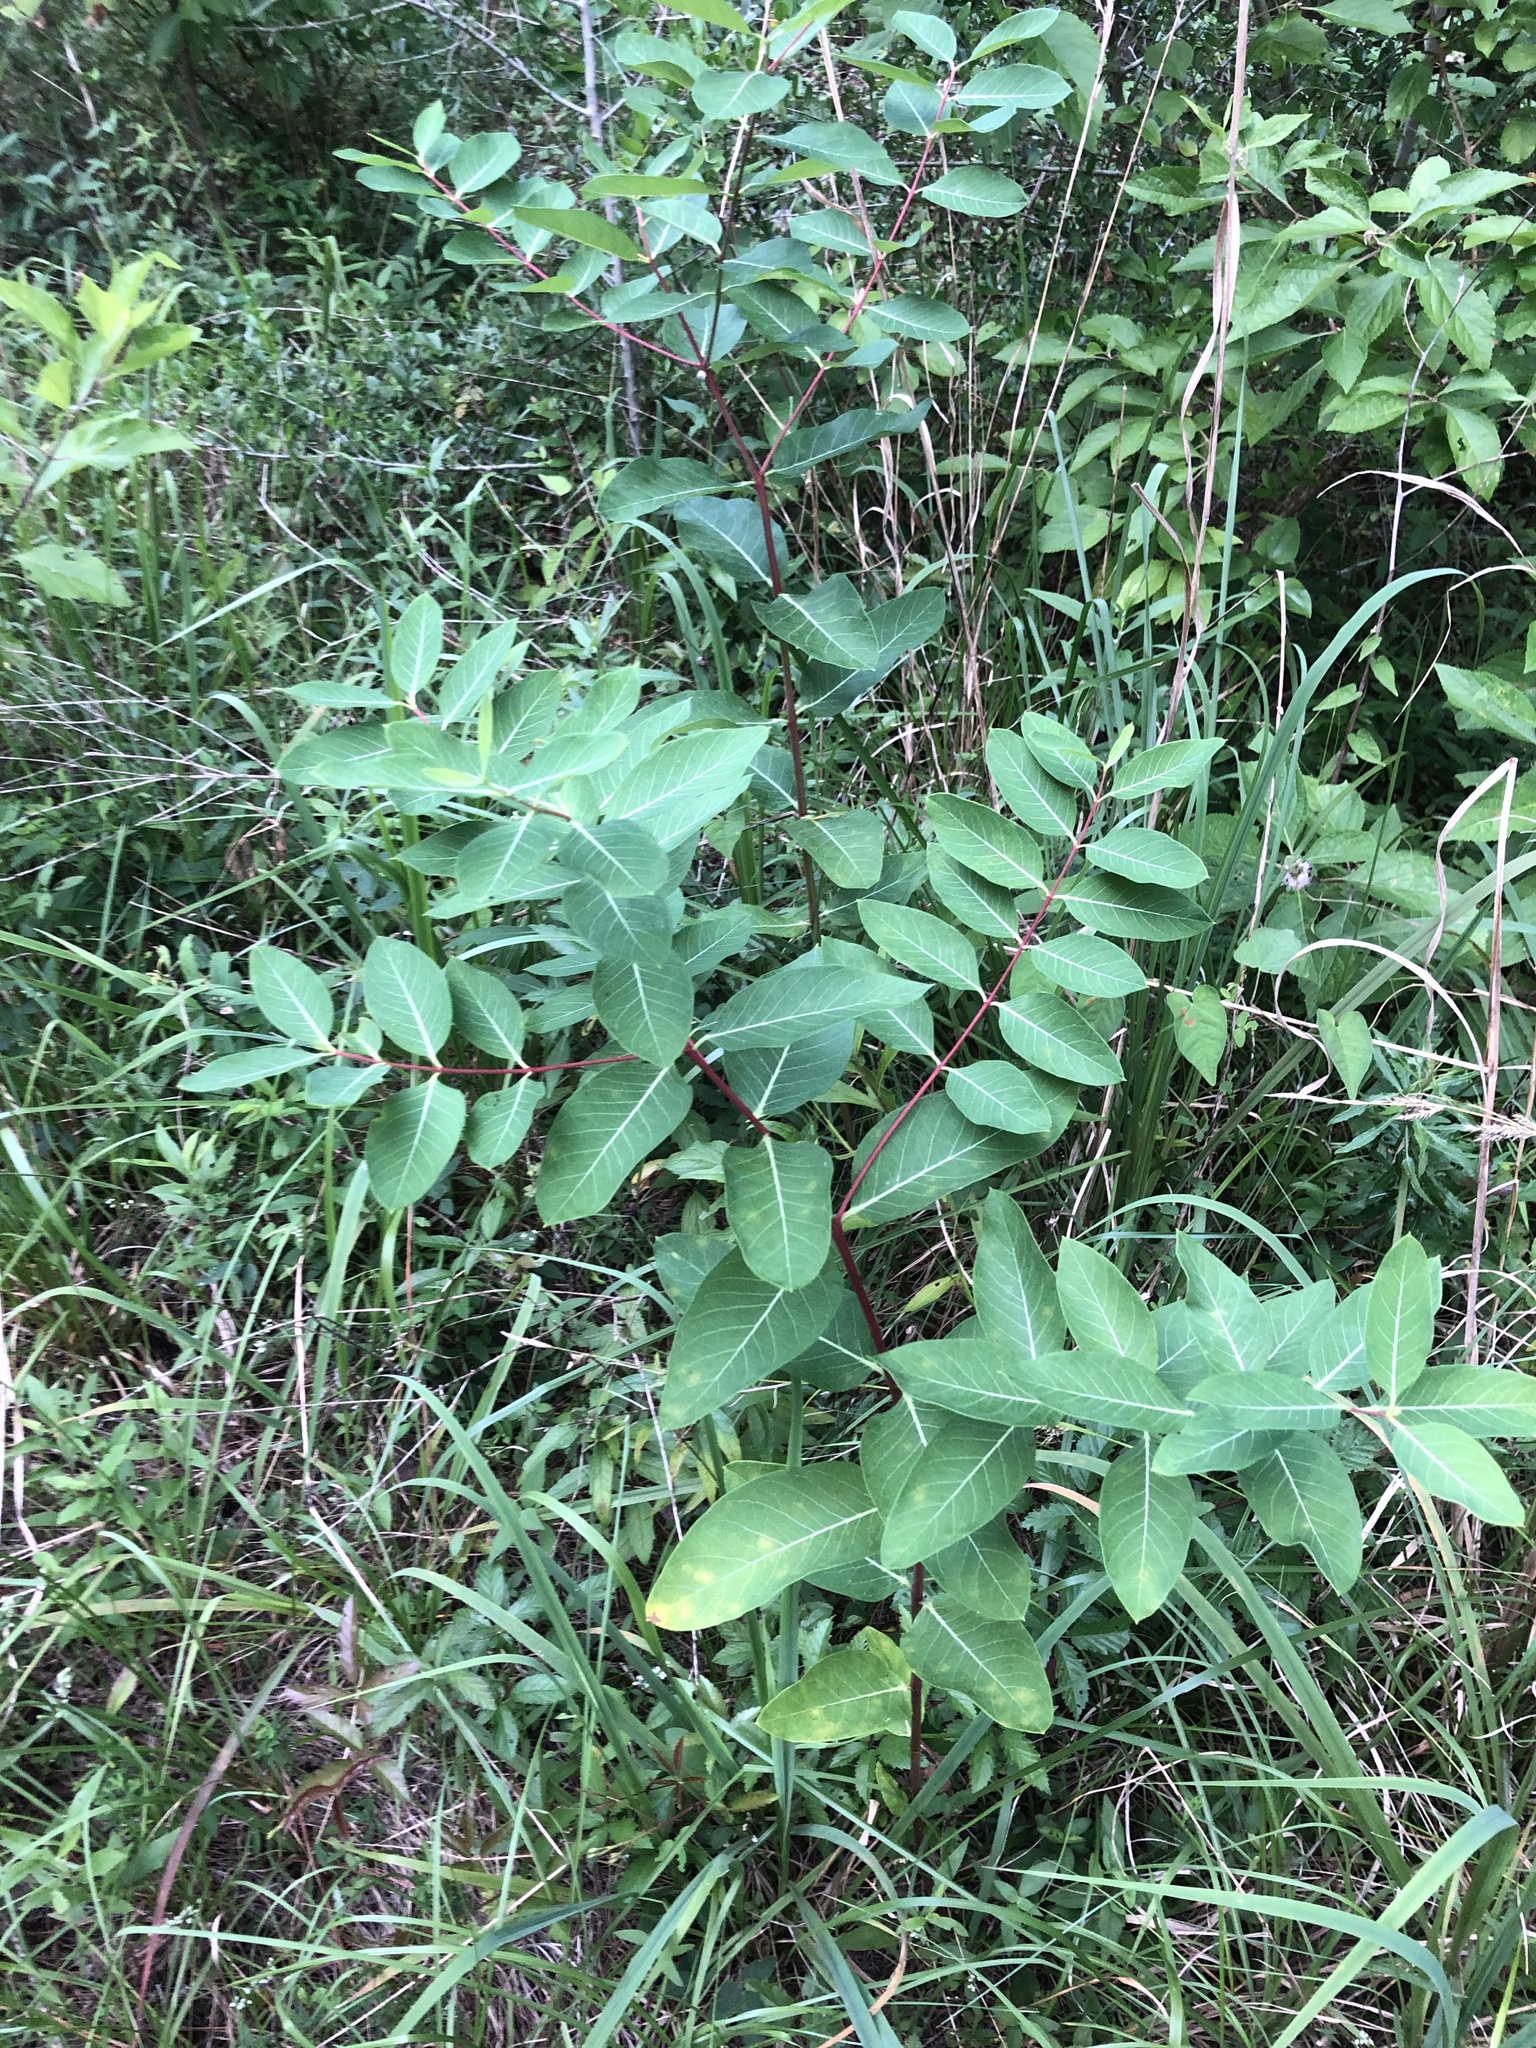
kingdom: Plantae
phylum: Tracheophyta
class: Magnoliopsida
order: Gentianales
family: Apocynaceae
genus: Apocynum
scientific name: Apocynum cannabinum
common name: Hemp dogbane
